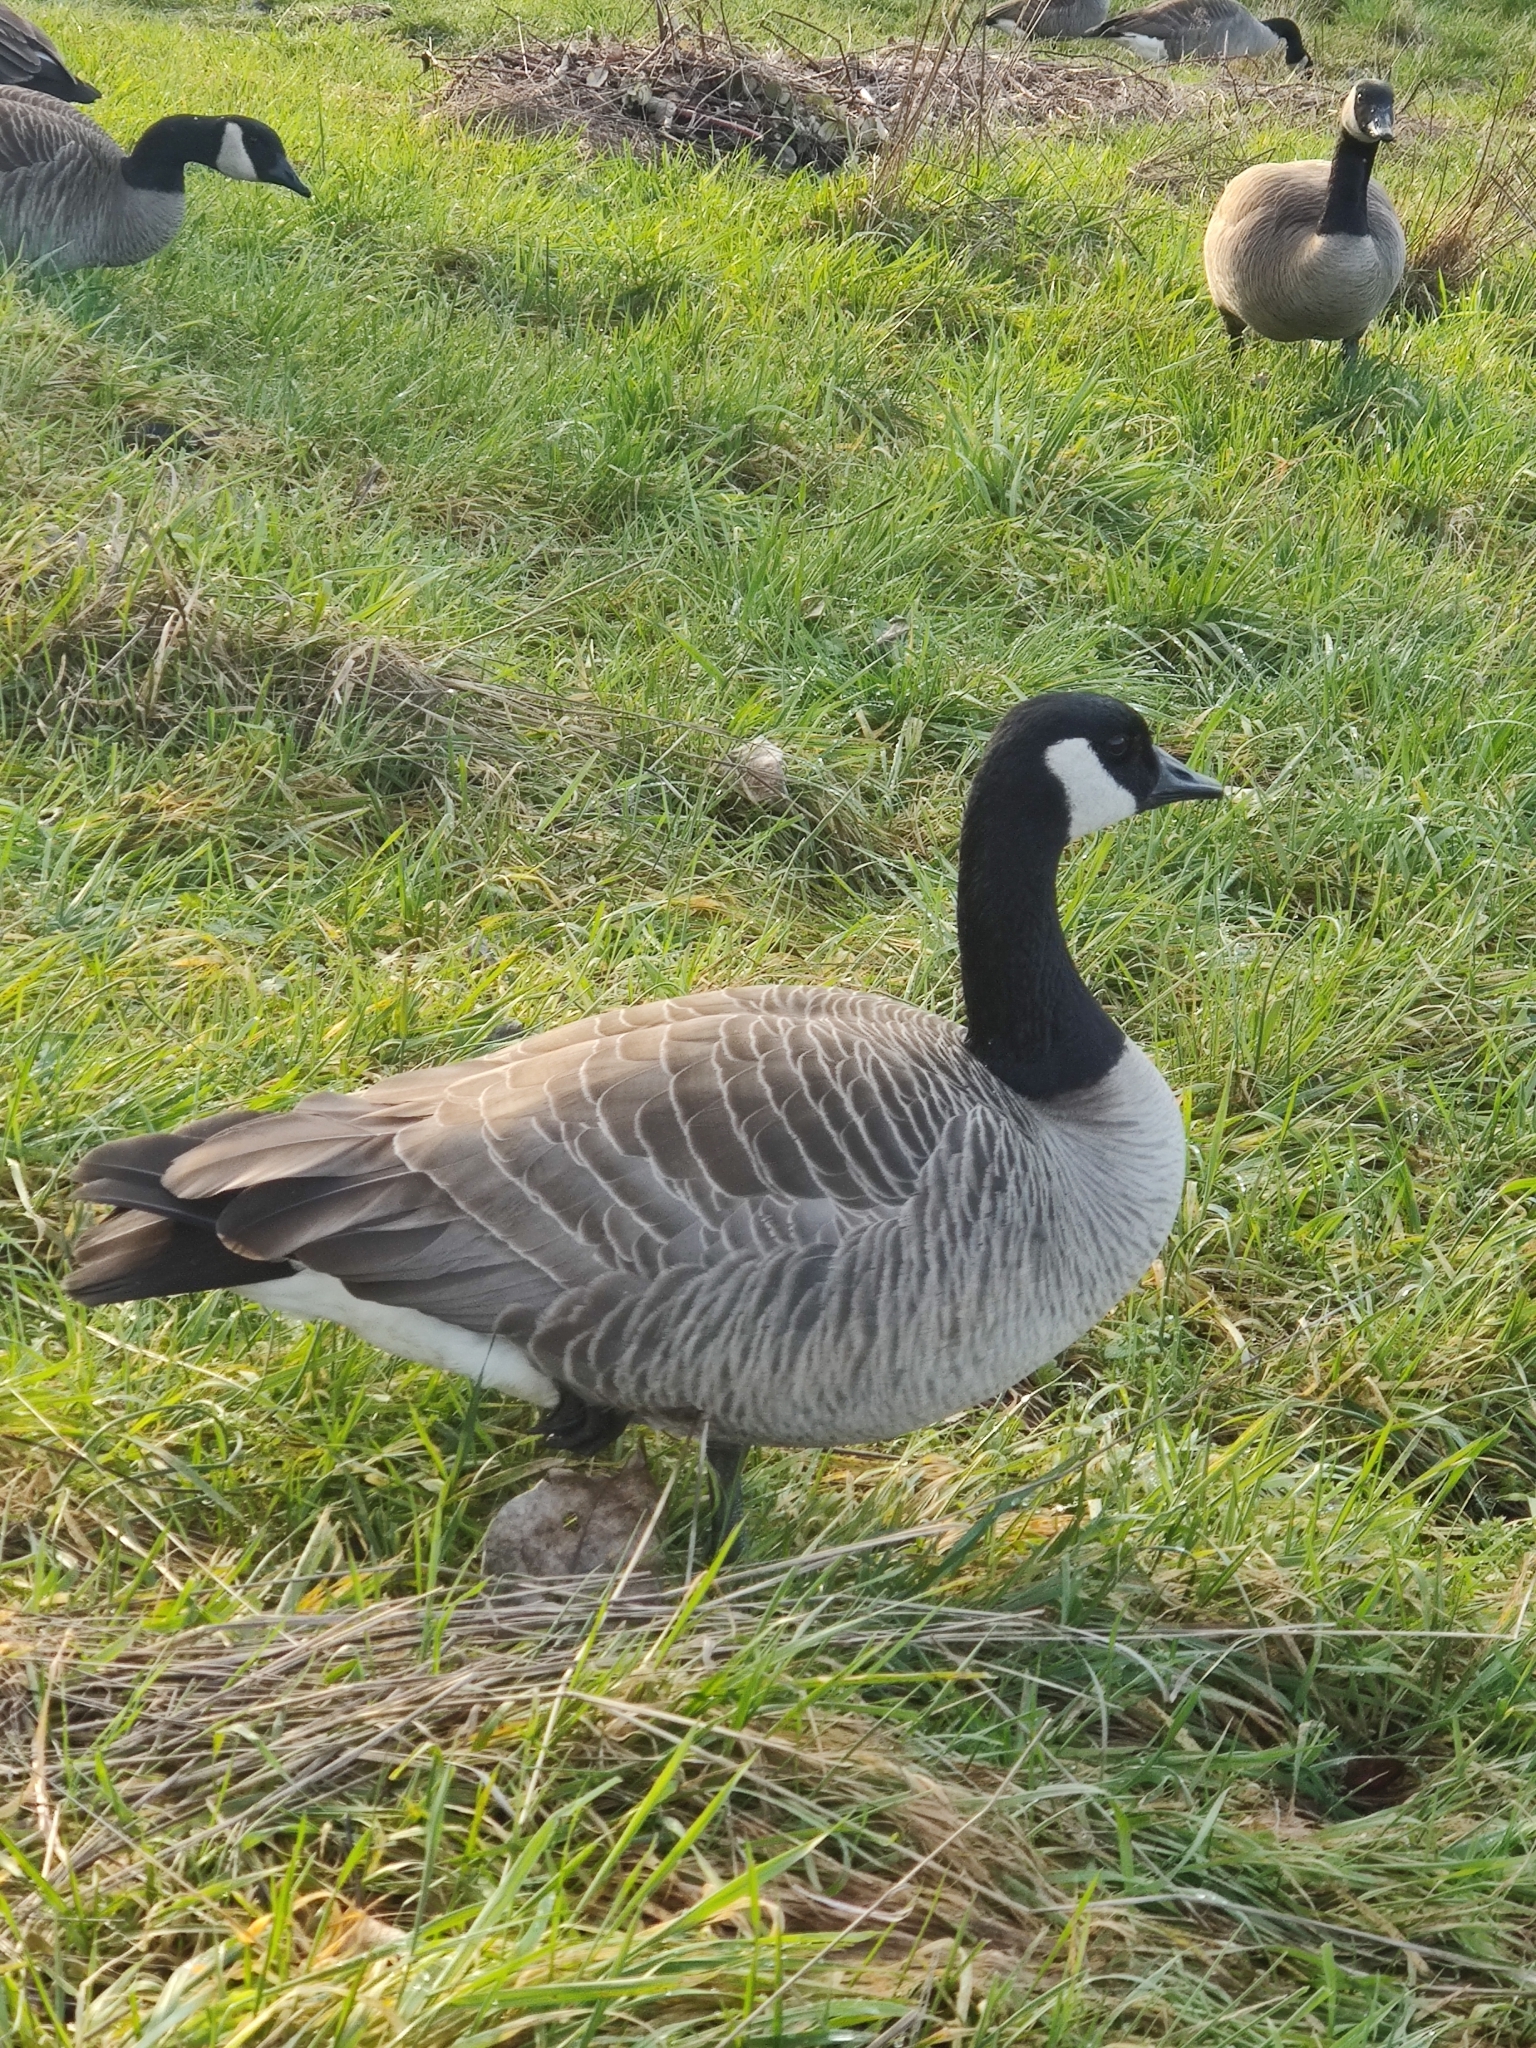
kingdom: Animalia
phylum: Chordata
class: Aves
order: Anseriformes
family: Anatidae
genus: Branta
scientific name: Branta canadensis
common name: Canada goose
